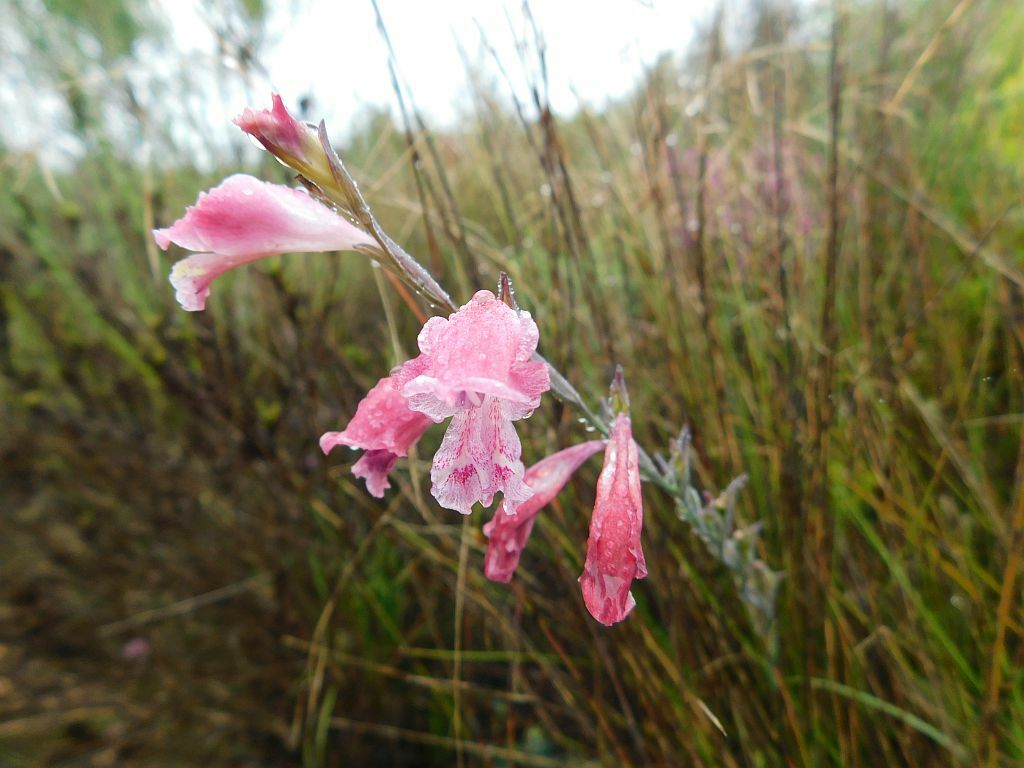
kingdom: Plantae
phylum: Tracheophyta
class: Liliopsida
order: Asparagales
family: Iridaceae
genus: Gladiolus
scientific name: Gladiolus brevifolius
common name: March pypie
